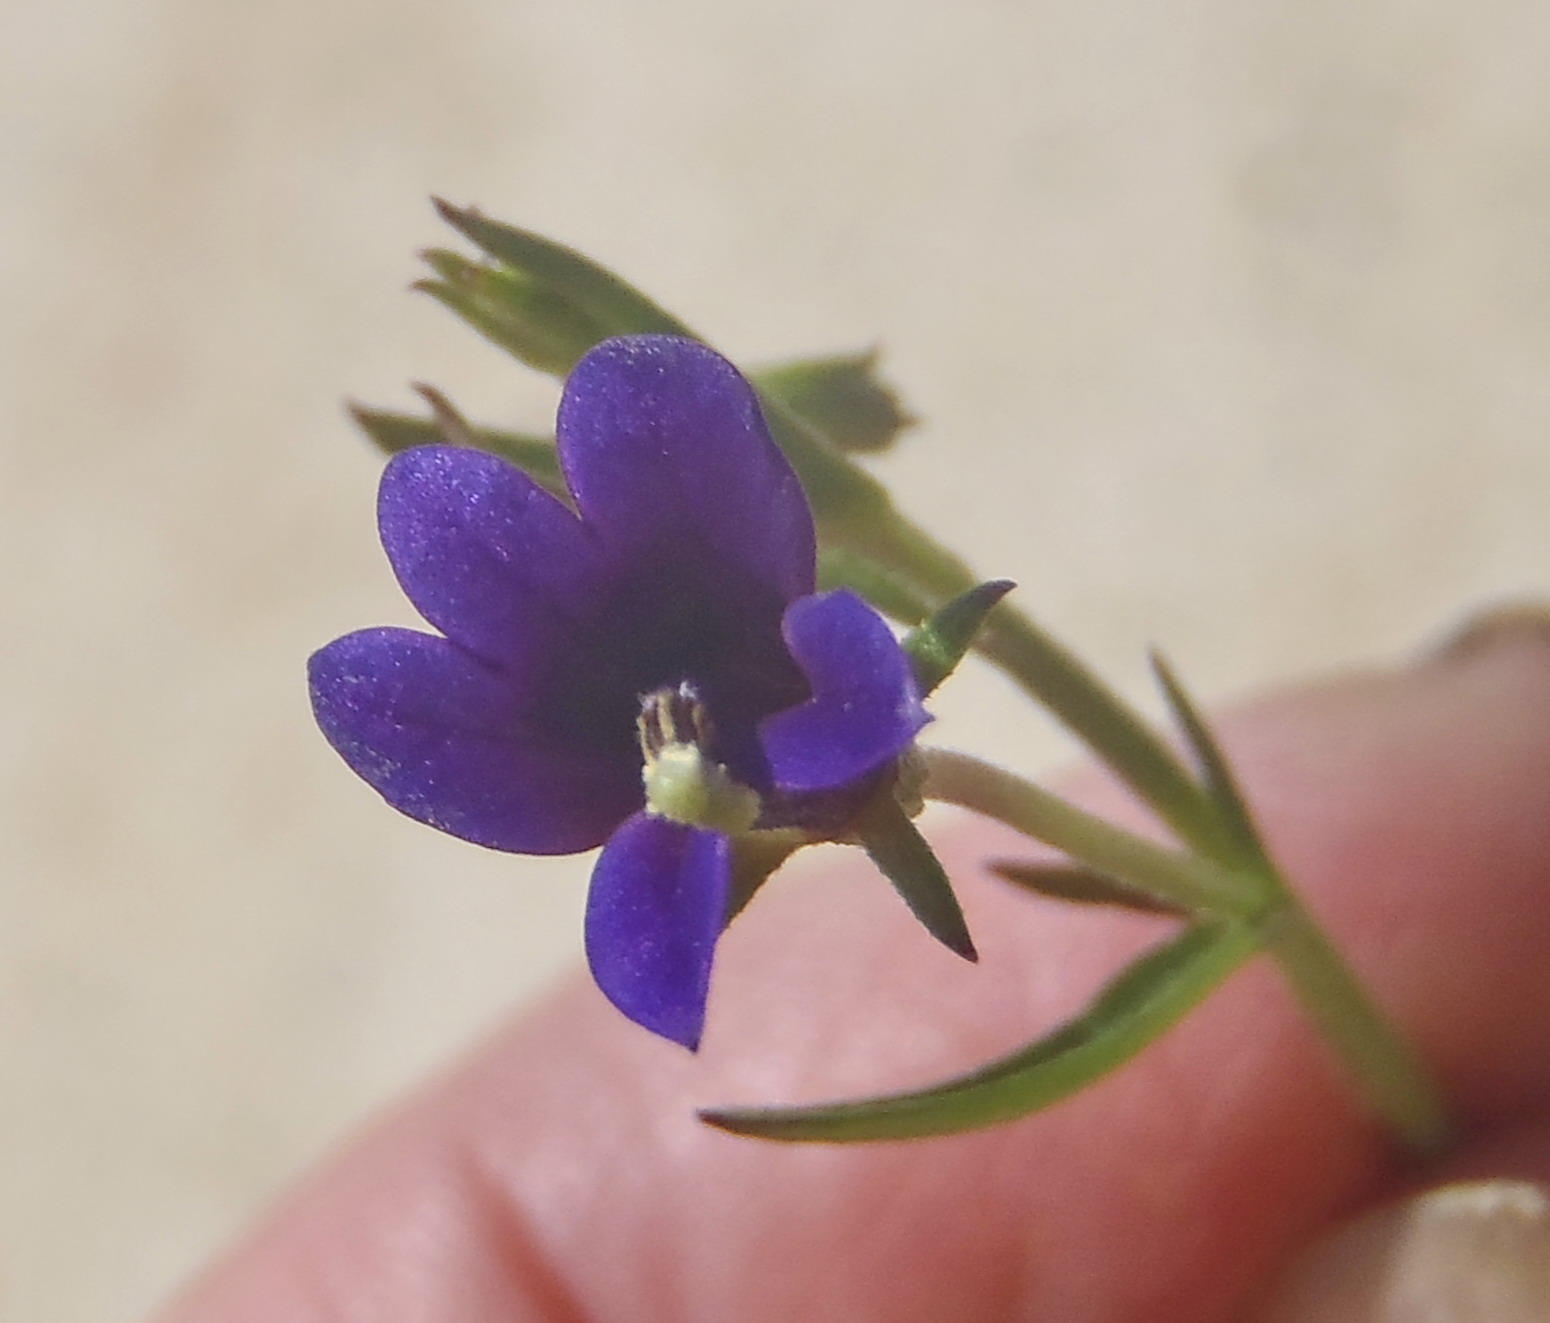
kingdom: Plantae
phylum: Tracheophyta
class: Magnoliopsida
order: Asterales
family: Campanulaceae
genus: Monopsis
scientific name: Monopsis simplex
